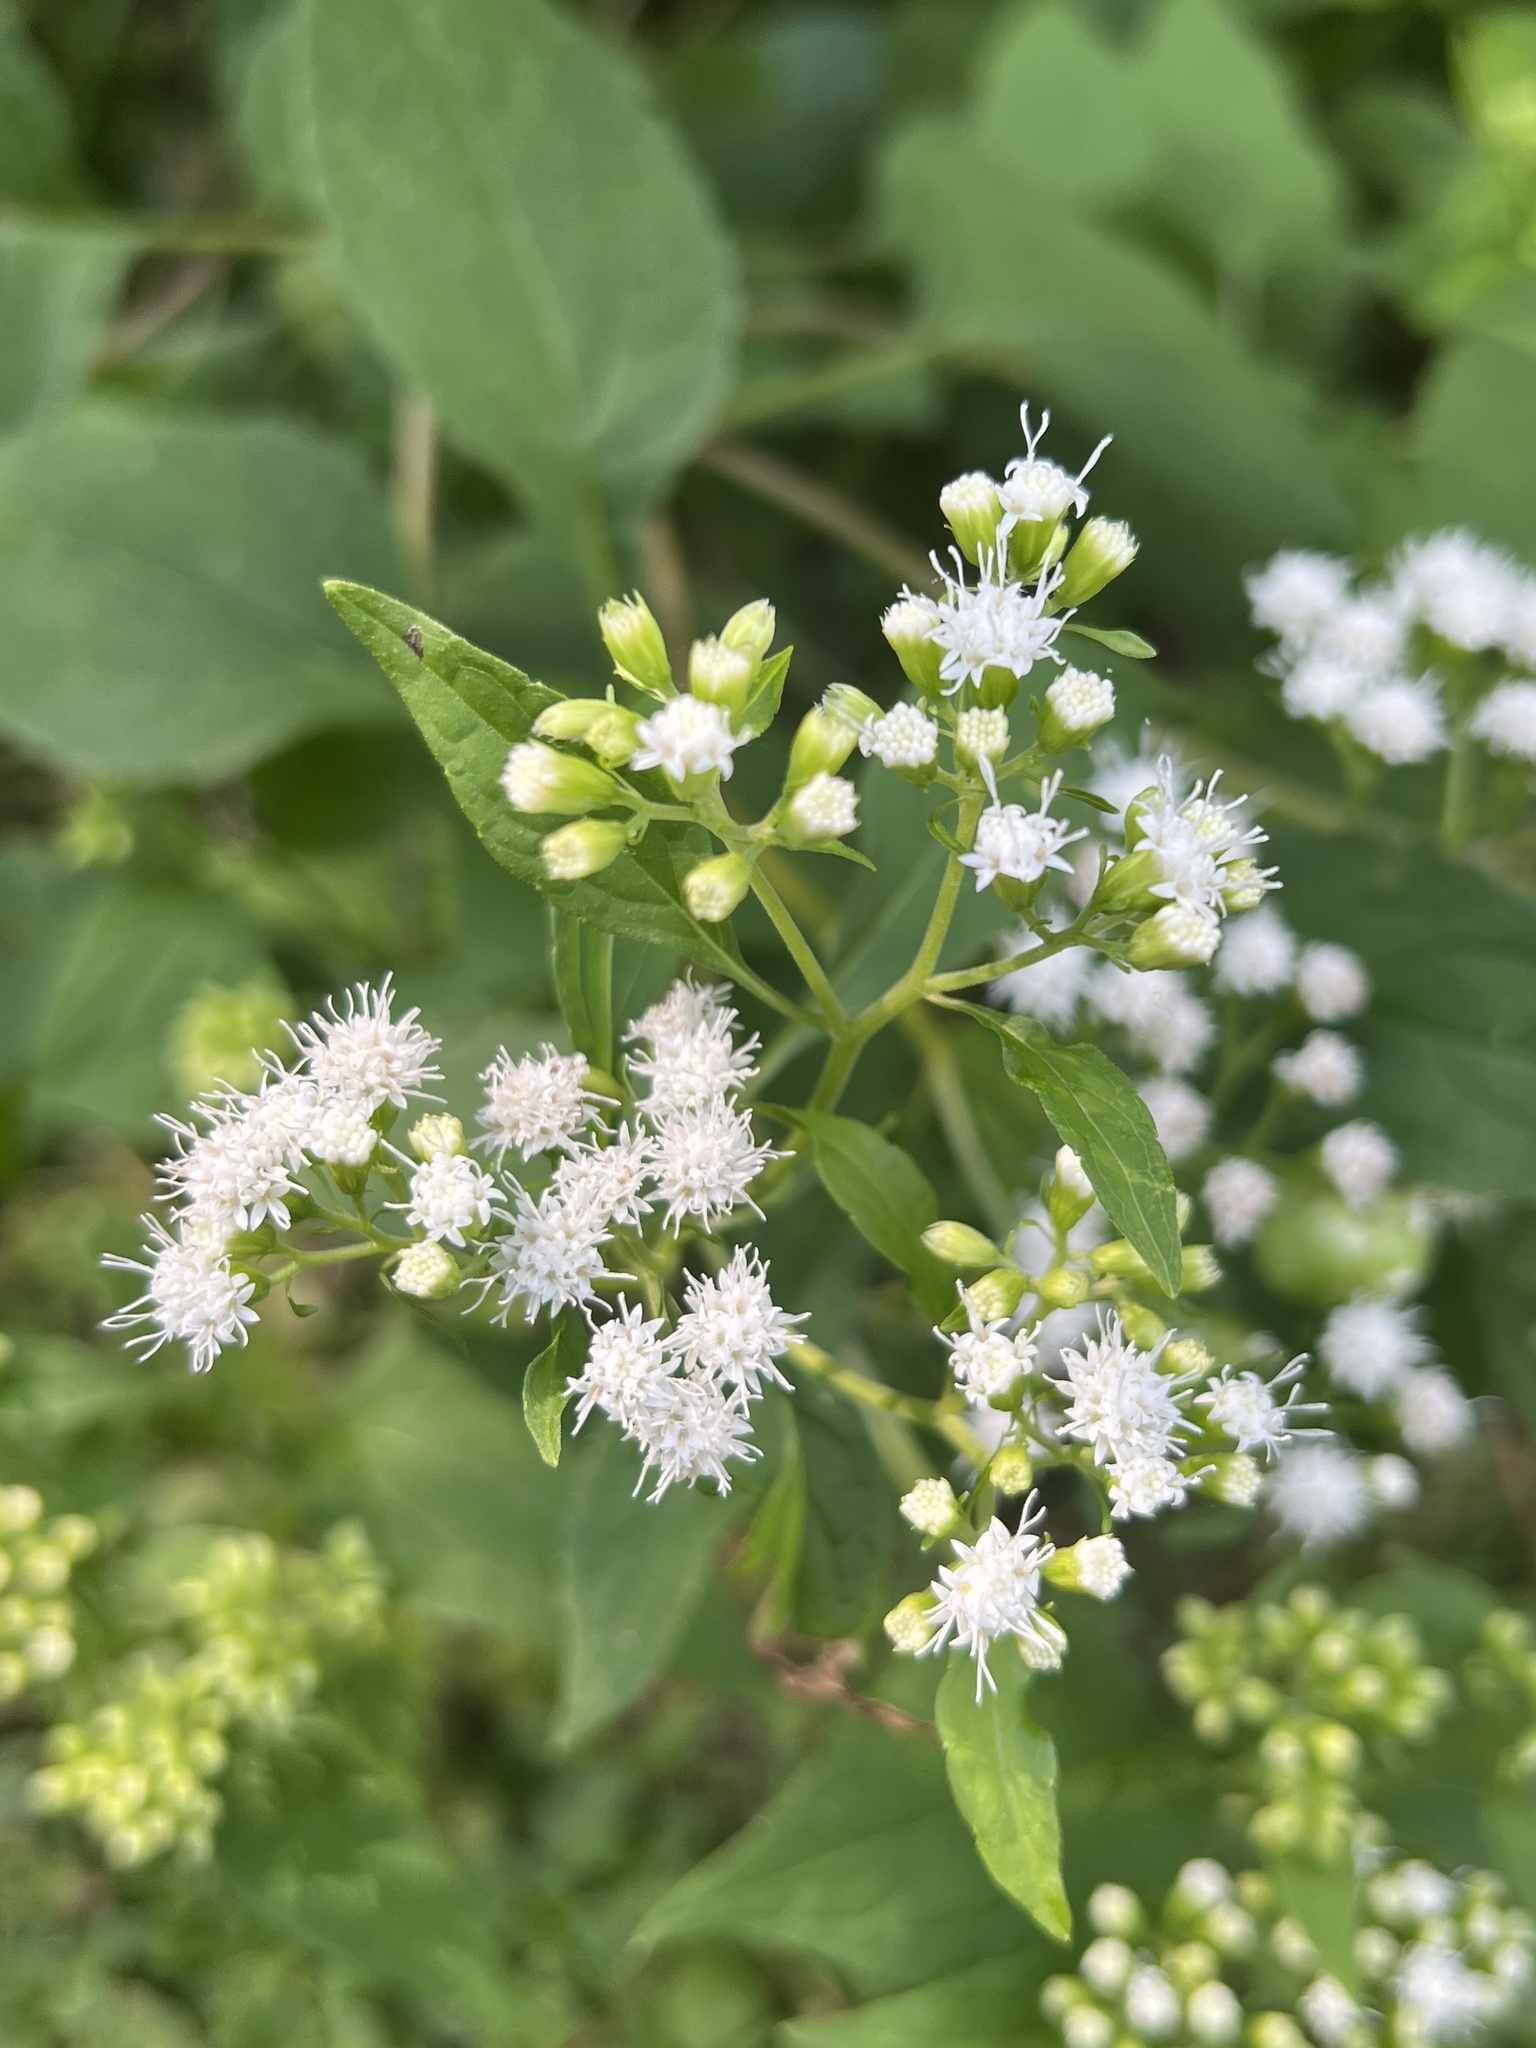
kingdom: Plantae
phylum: Tracheophyta
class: Magnoliopsida
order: Asterales
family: Asteraceae
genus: Ageratina
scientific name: Ageratina altissima
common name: White snakeroot
